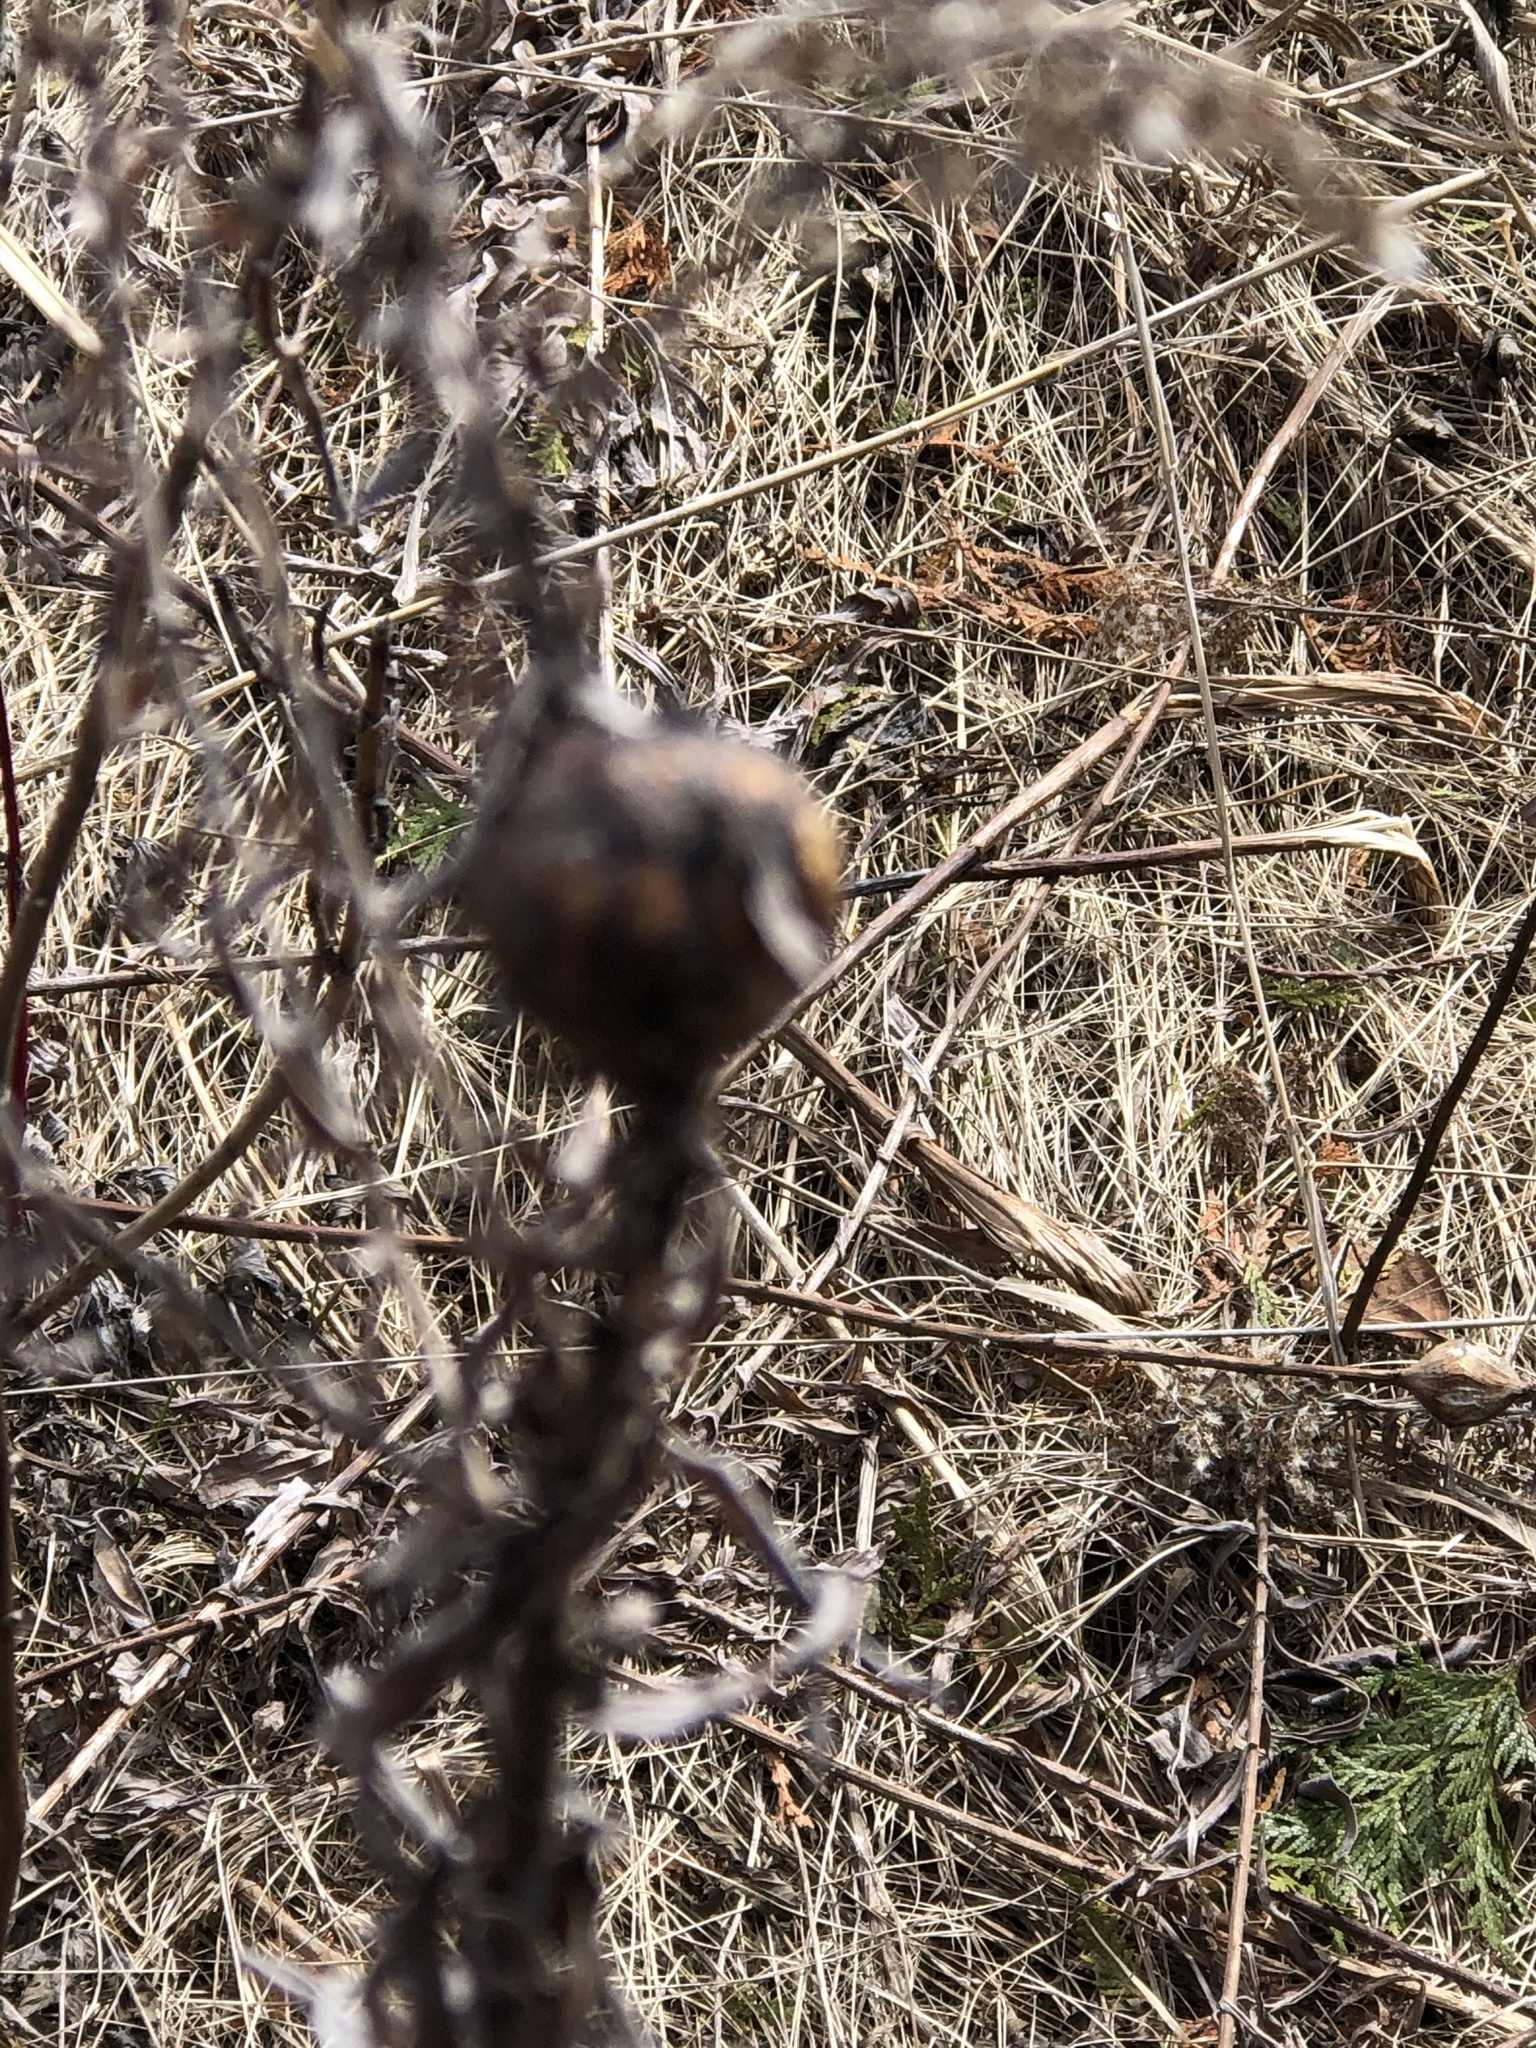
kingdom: Animalia
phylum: Arthropoda
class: Insecta
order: Diptera
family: Tephritidae
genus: Eurosta
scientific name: Eurosta solidaginis
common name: Goldenrod gall fly
